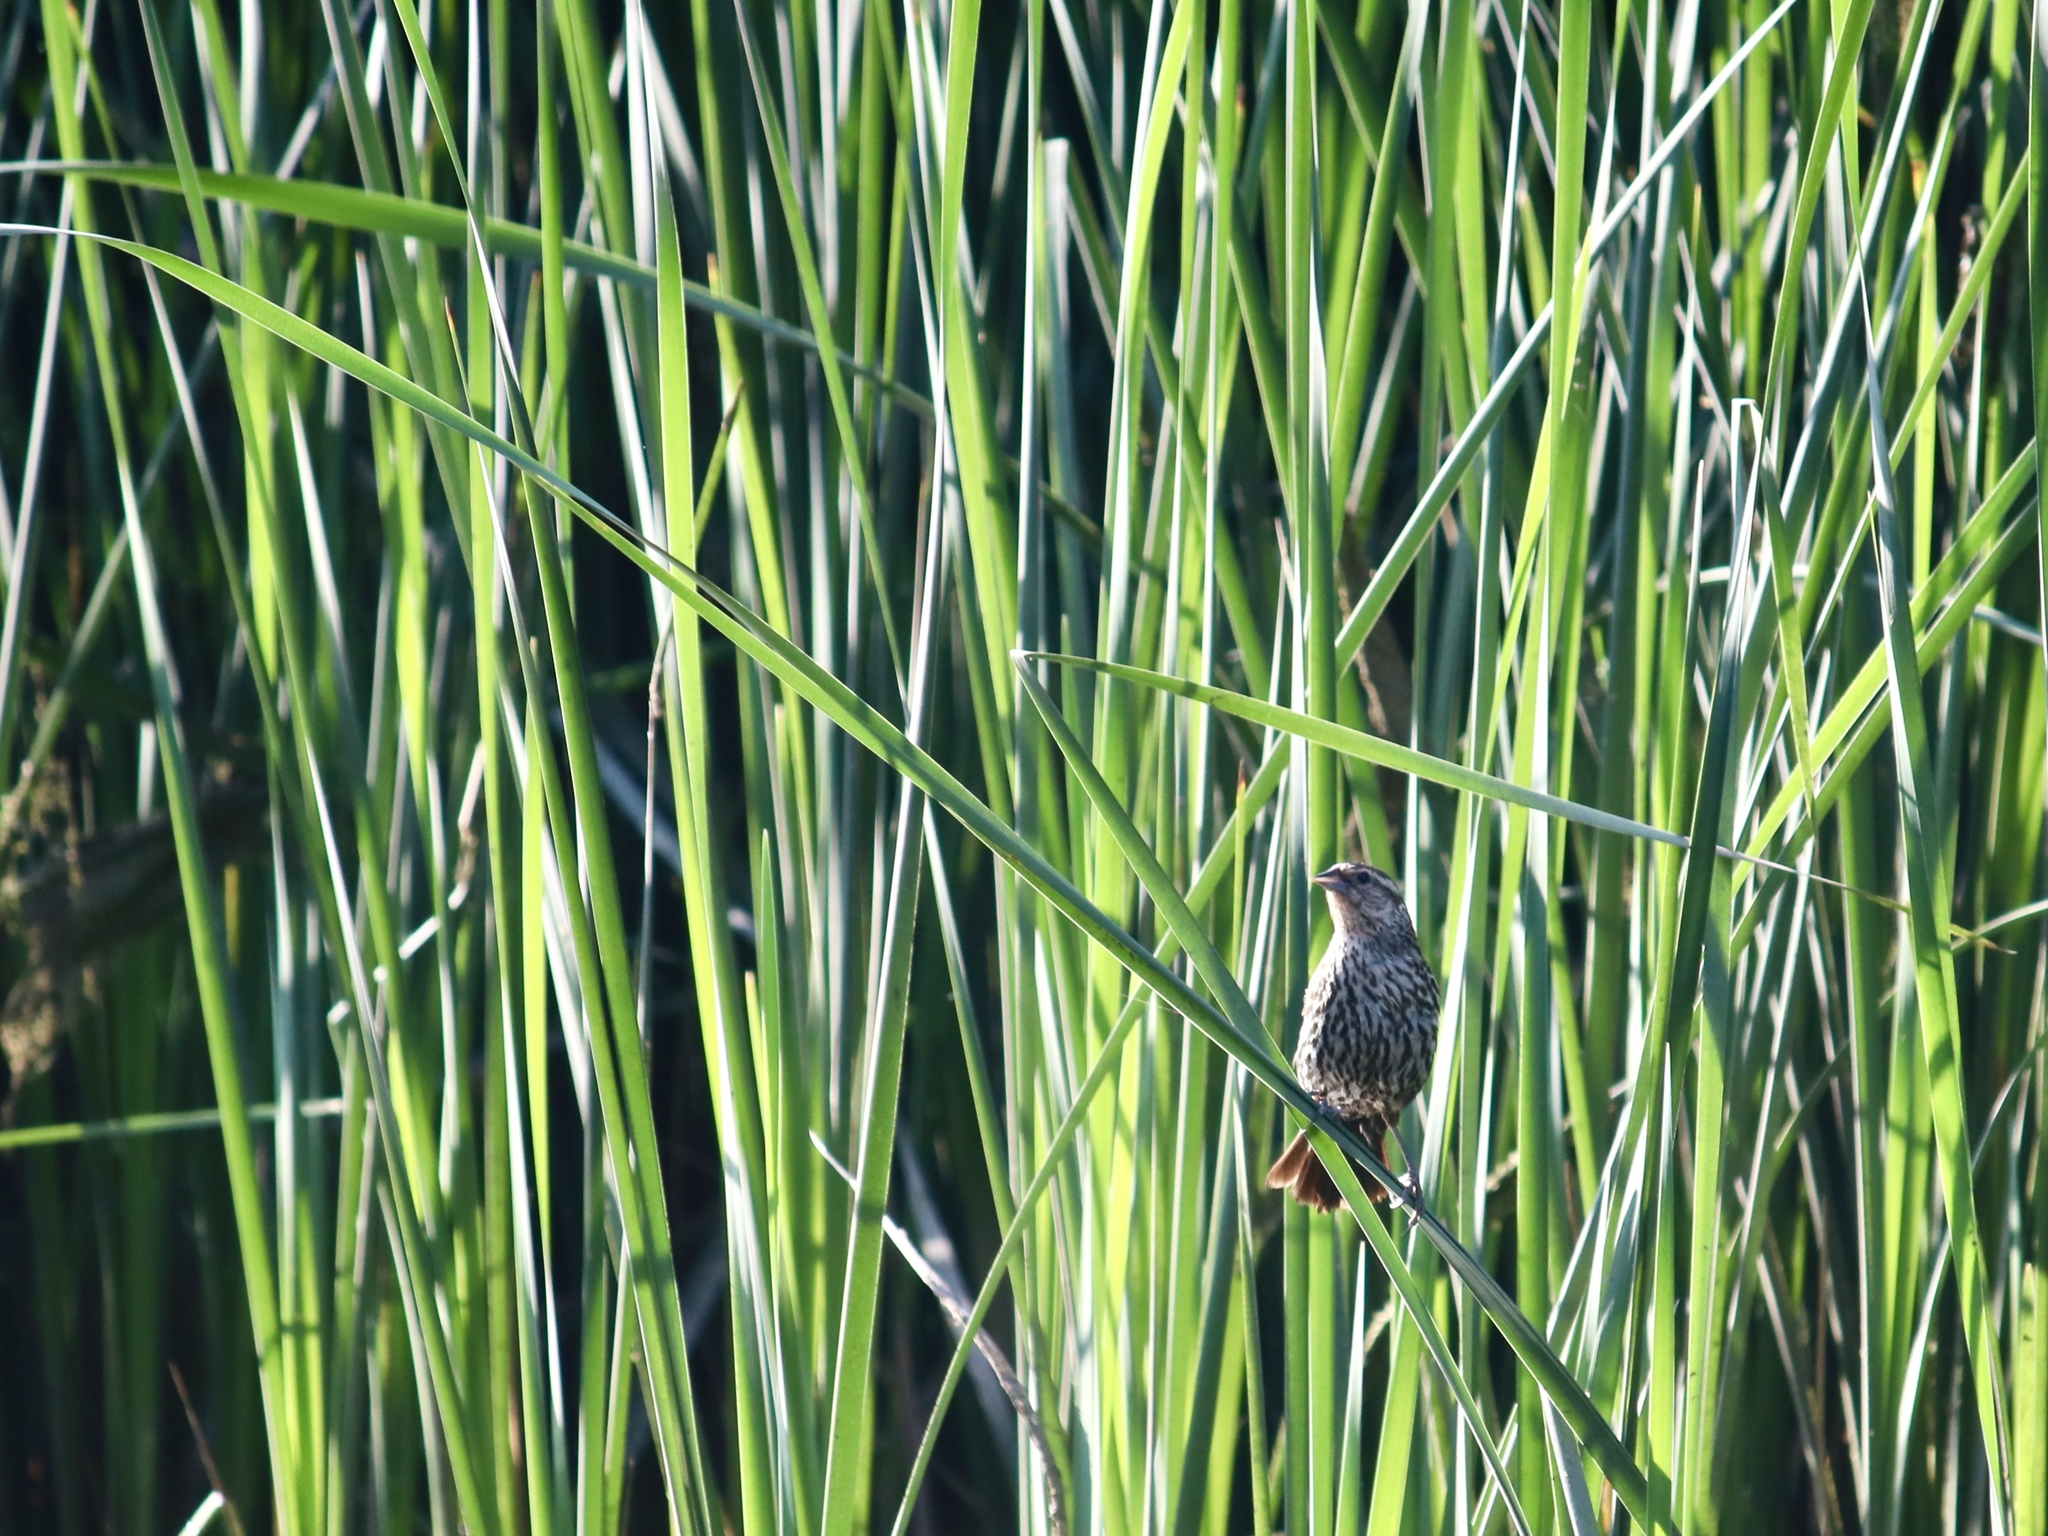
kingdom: Animalia
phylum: Chordata
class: Aves
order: Passeriformes
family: Icteridae
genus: Agelaius
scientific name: Agelaius phoeniceus
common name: Red-winged blackbird
